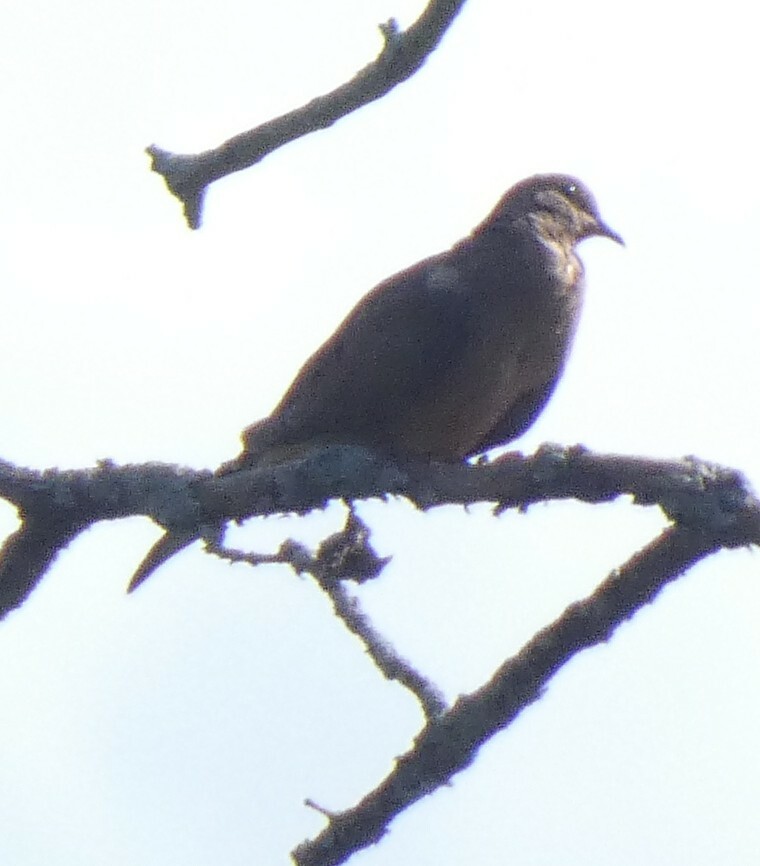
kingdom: Animalia
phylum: Chordata
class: Aves
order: Columbiformes
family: Columbidae
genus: Zenaida
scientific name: Zenaida macroura
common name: Mourning dove
